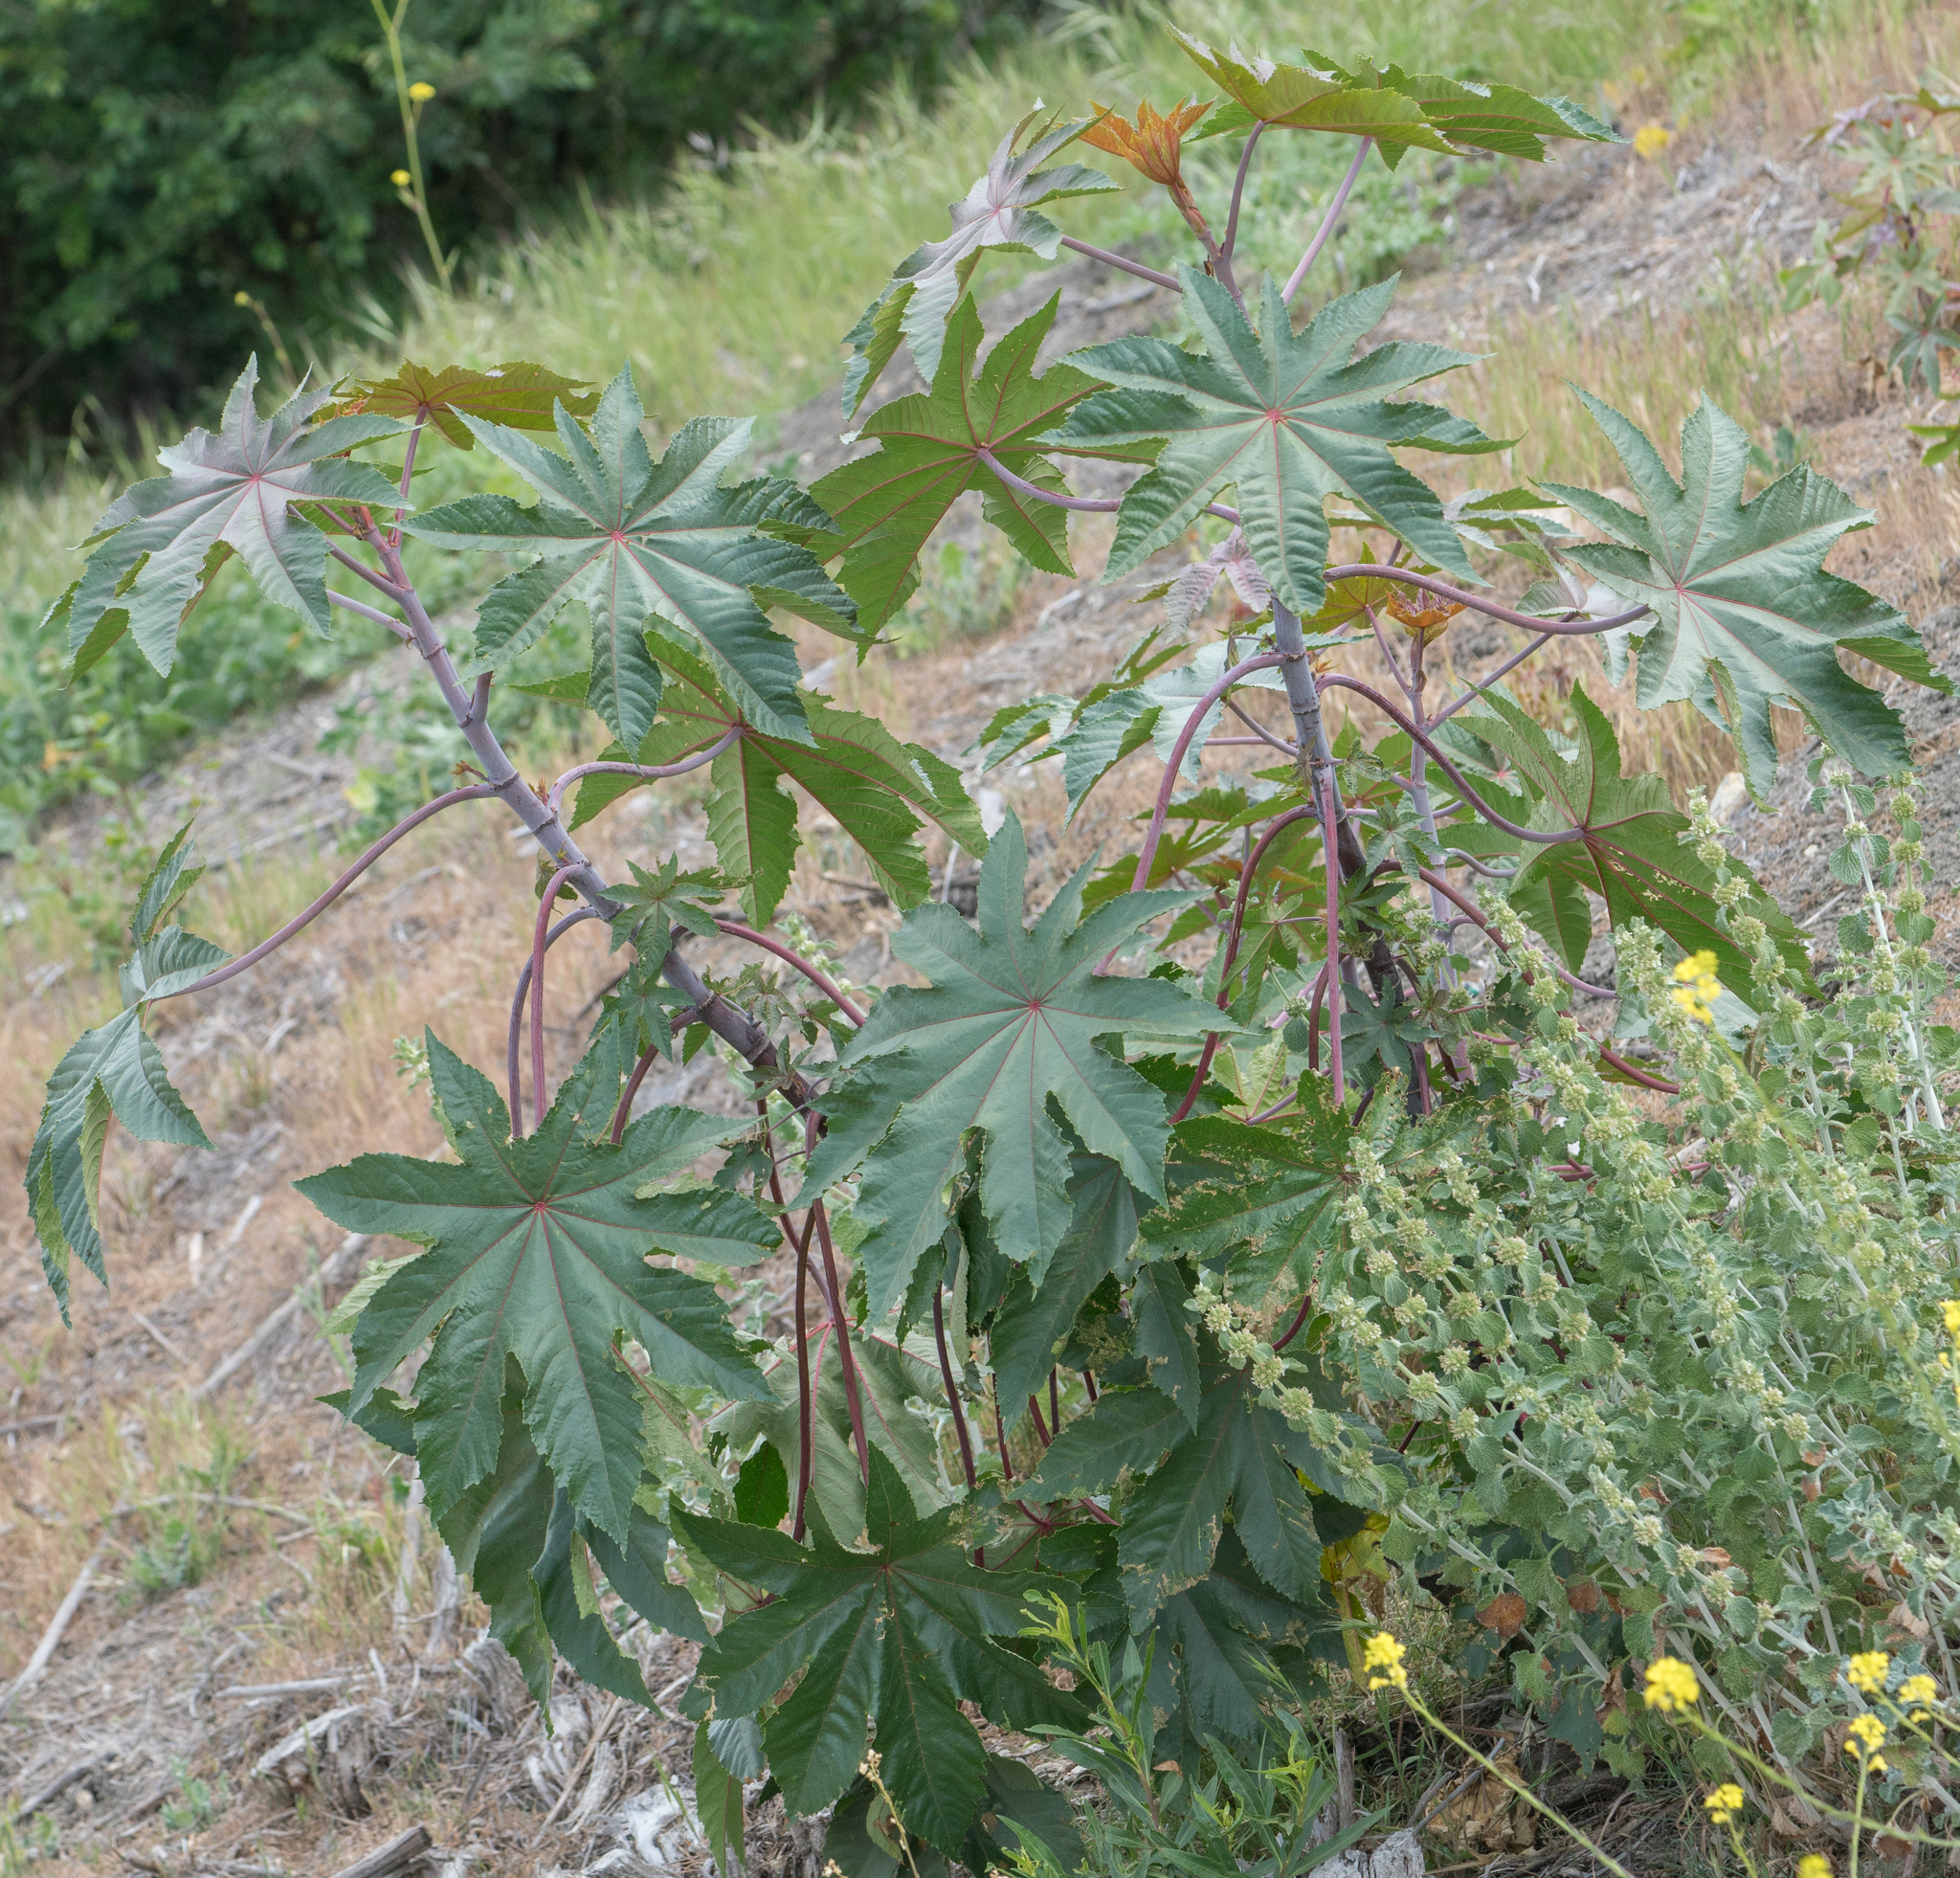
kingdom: Plantae
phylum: Tracheophyta
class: Magnoliopsida
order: Malpighiales
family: Euphorbiaceae
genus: Ricinus
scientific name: Ricinus communis
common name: Castor-oil-plant
